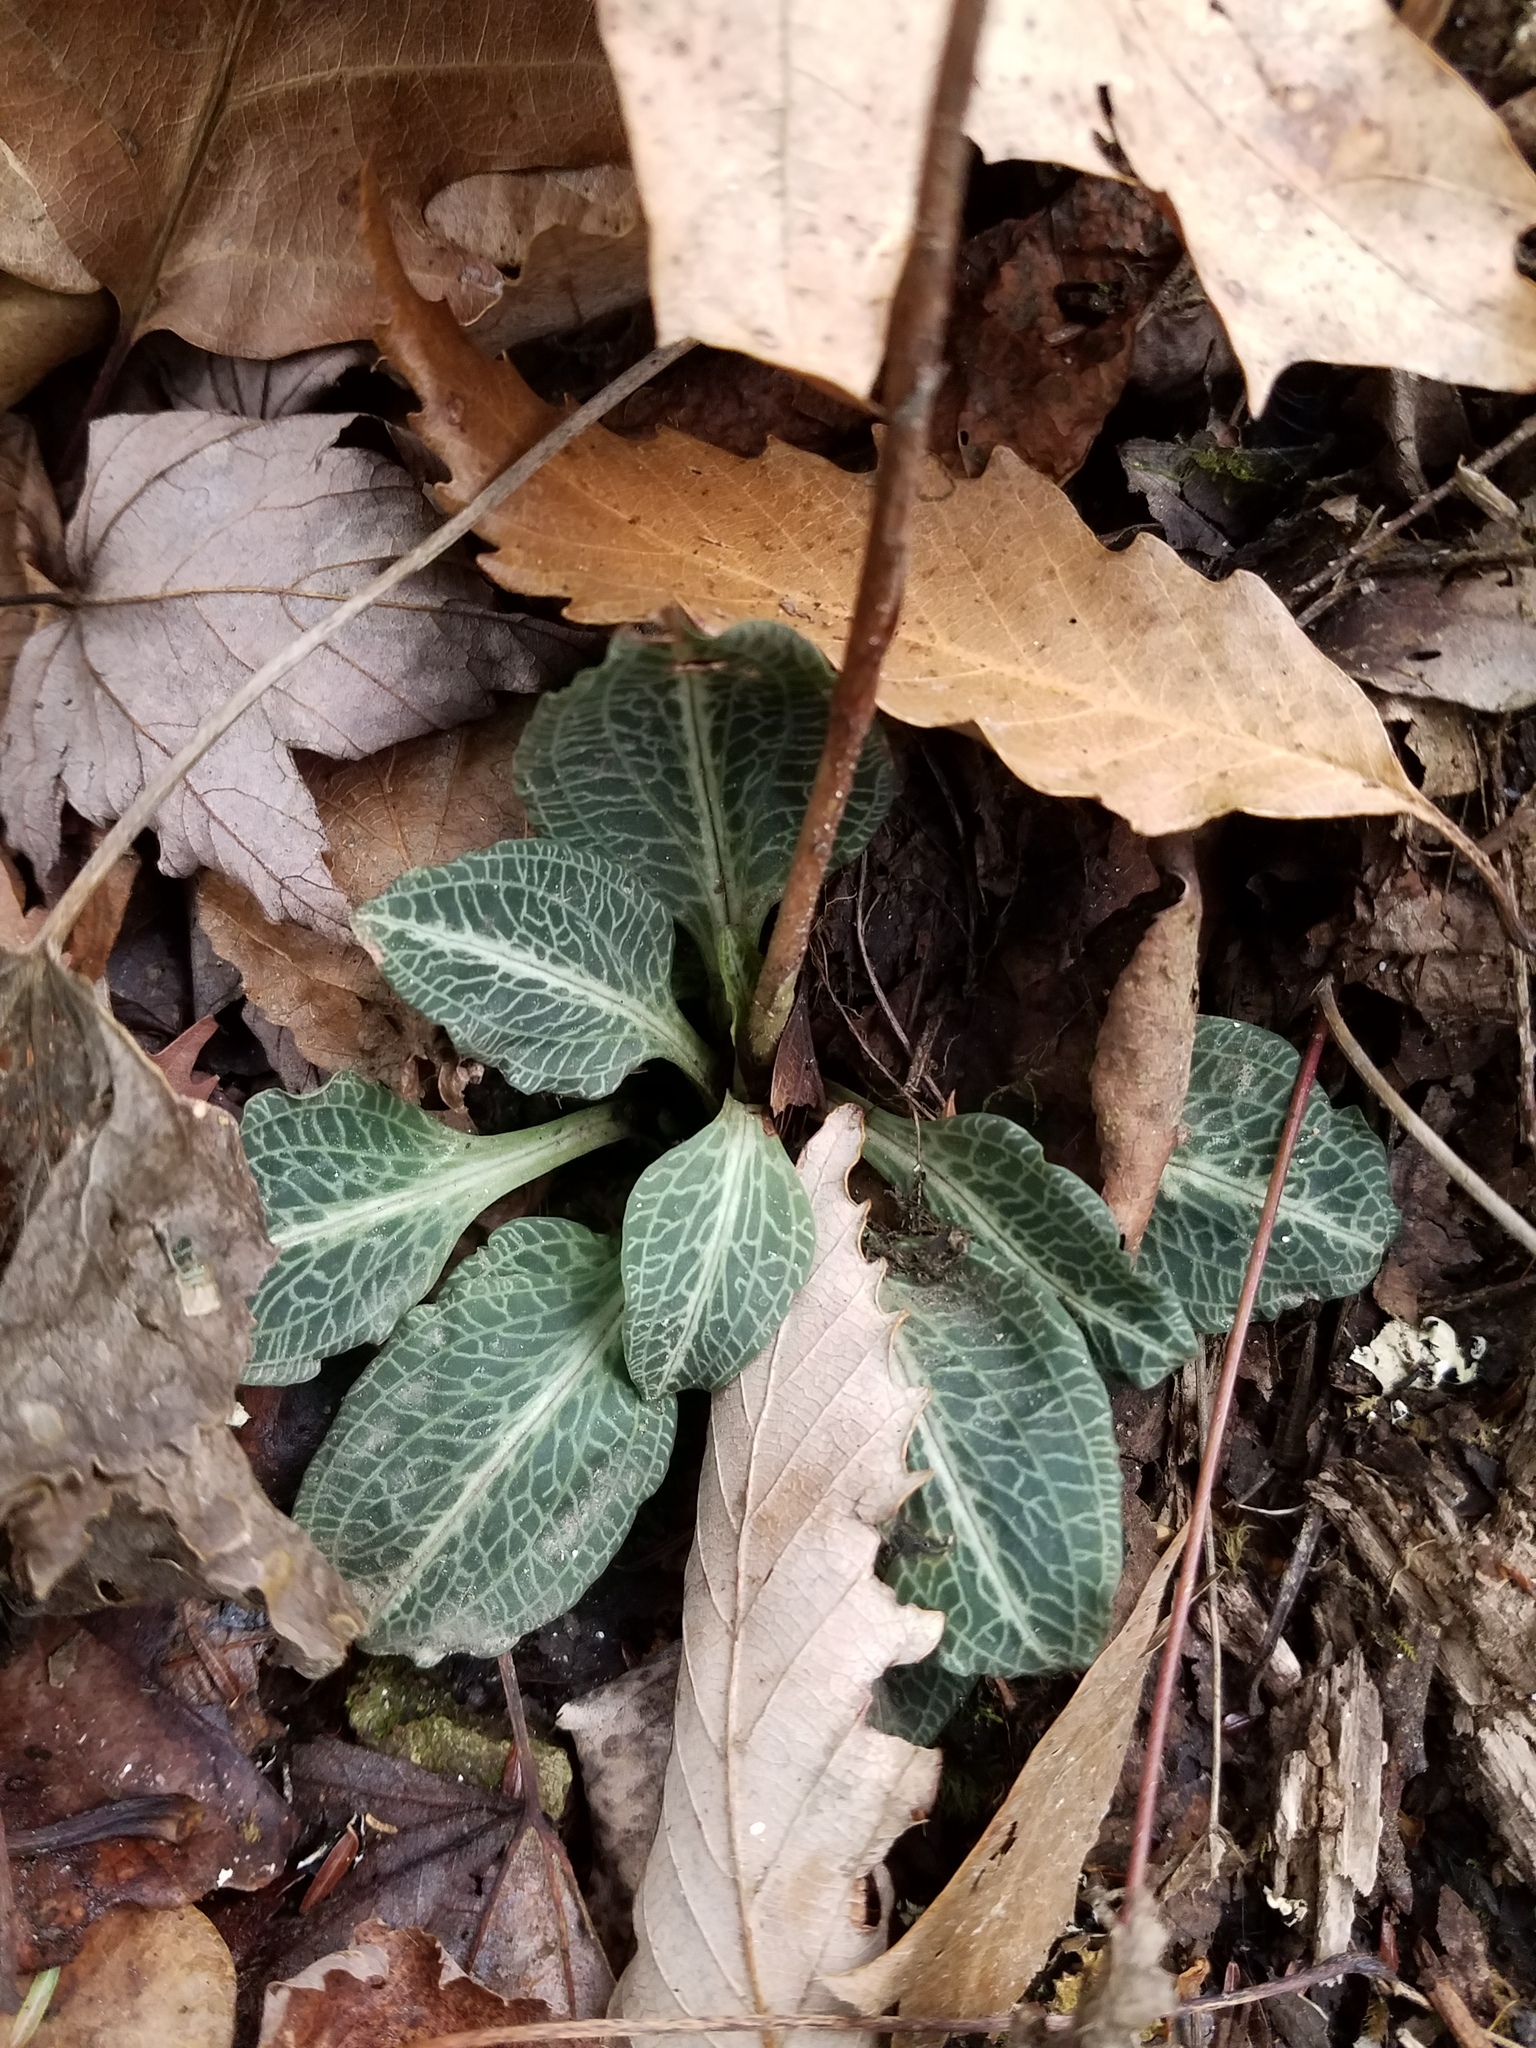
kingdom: Plantae
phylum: Tracheophyta
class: Liliopsida
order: Asparagales
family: Orchidaceae
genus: Goodyera
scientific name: Goodyera pubescens
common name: Downy rattlesnake-plantain
